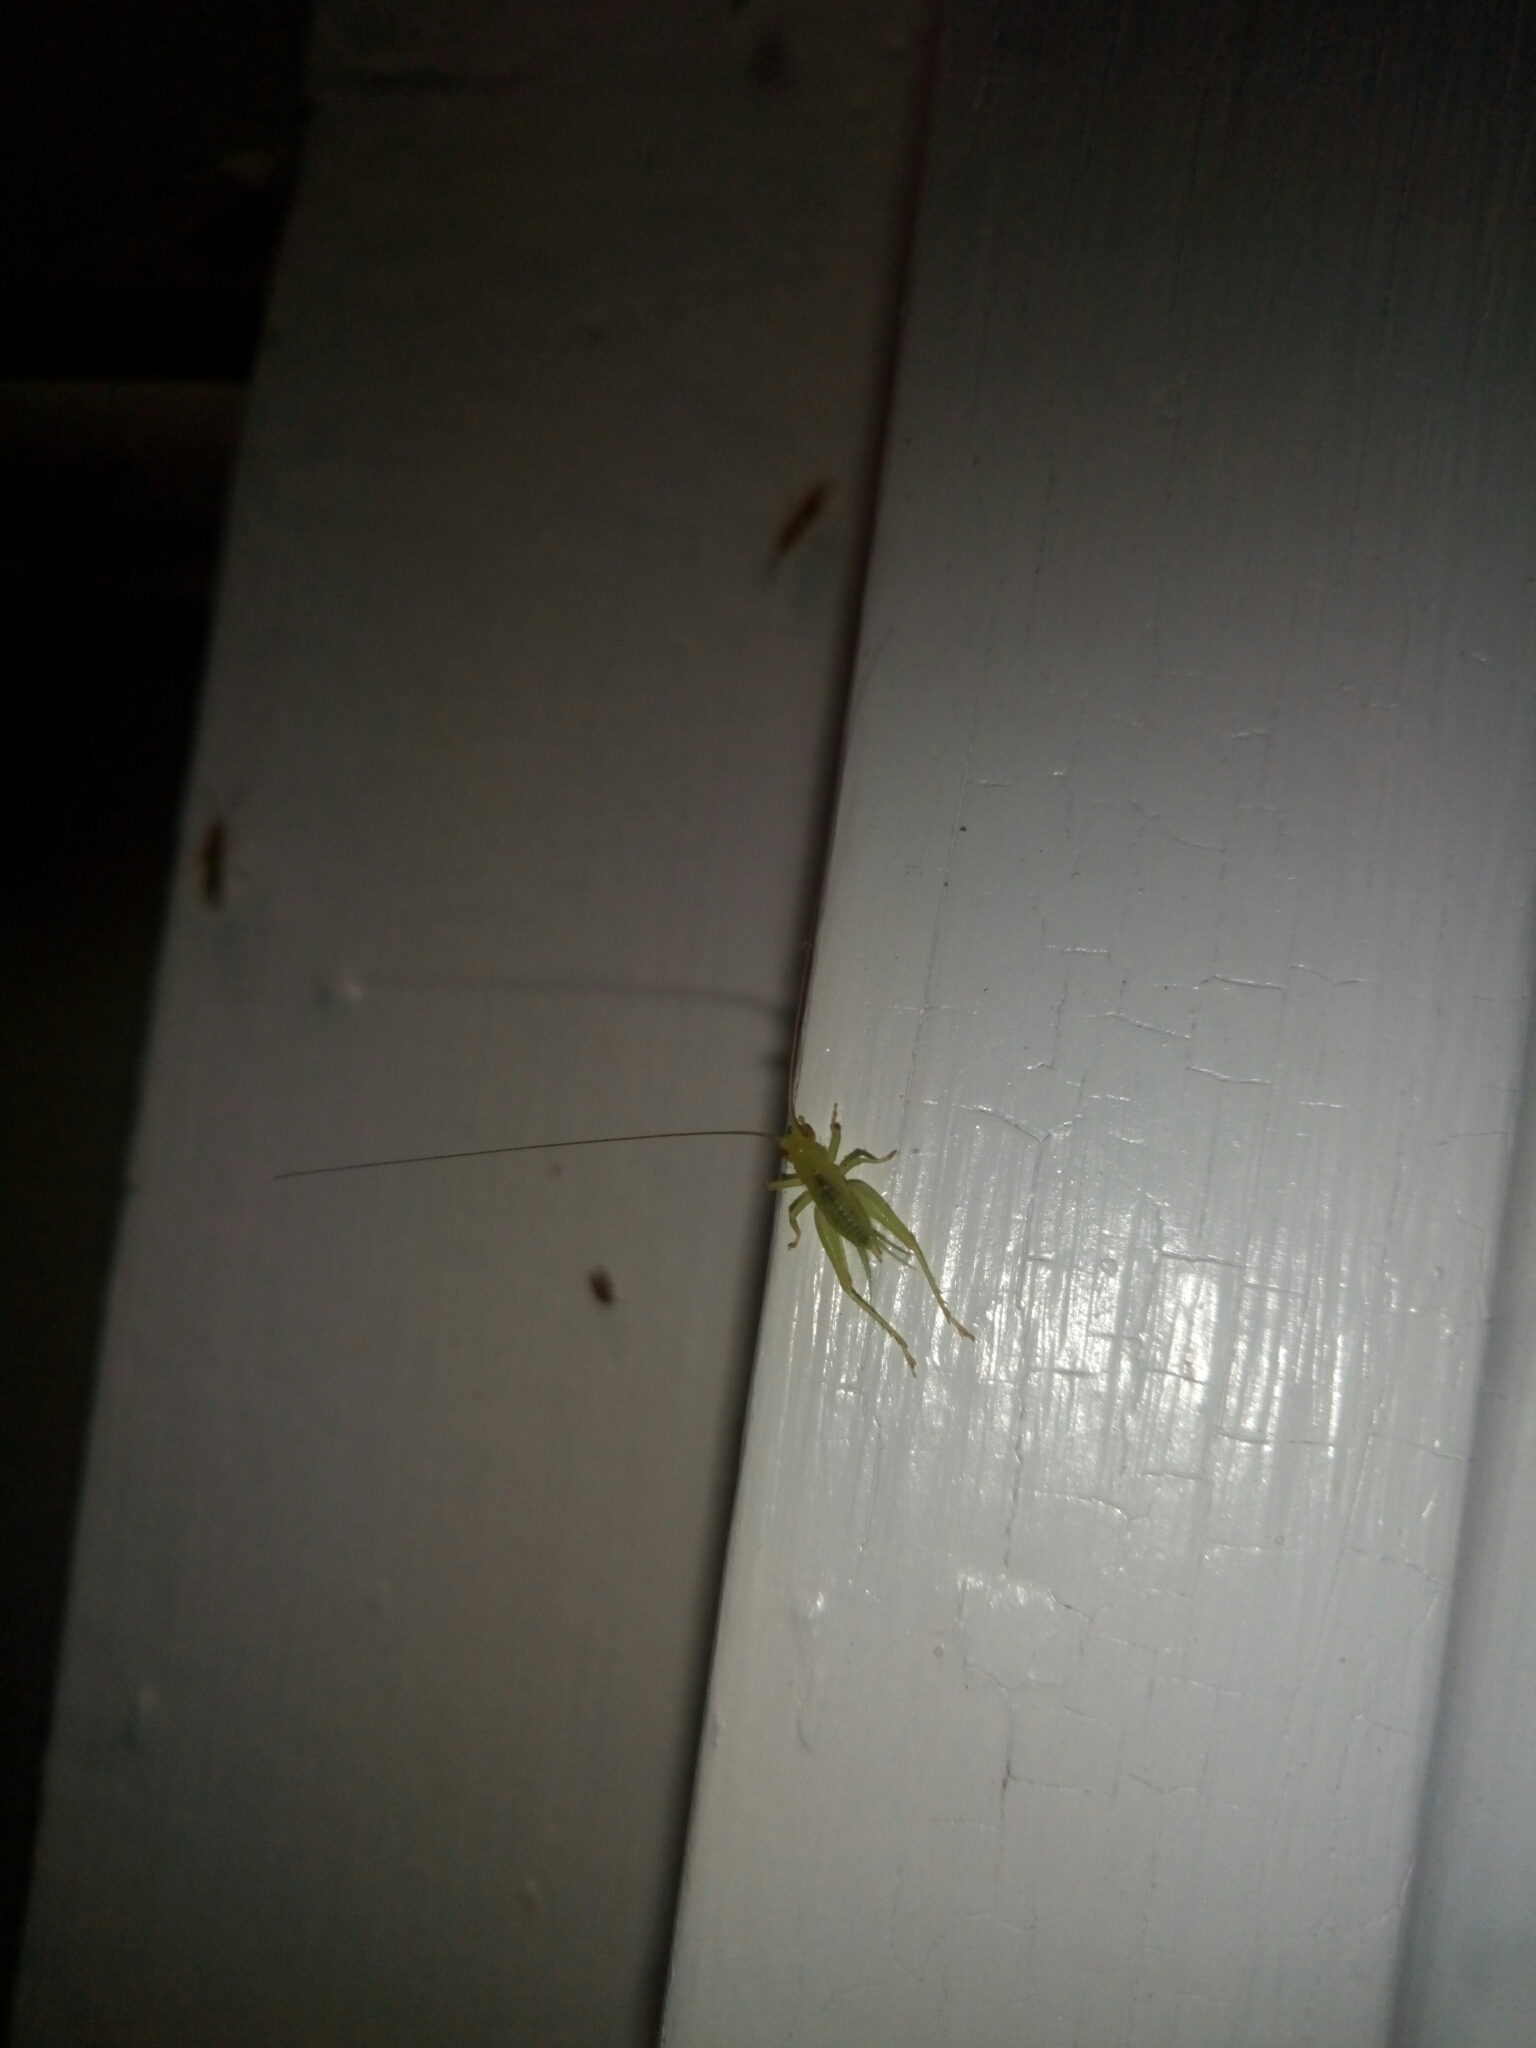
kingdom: Animalia
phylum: Arthropoda
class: Insecta
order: Orthoptera
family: Trigonidiidae
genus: Cyrtoxipha
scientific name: Cyrtoxipha columbiana
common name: Columbian trig
